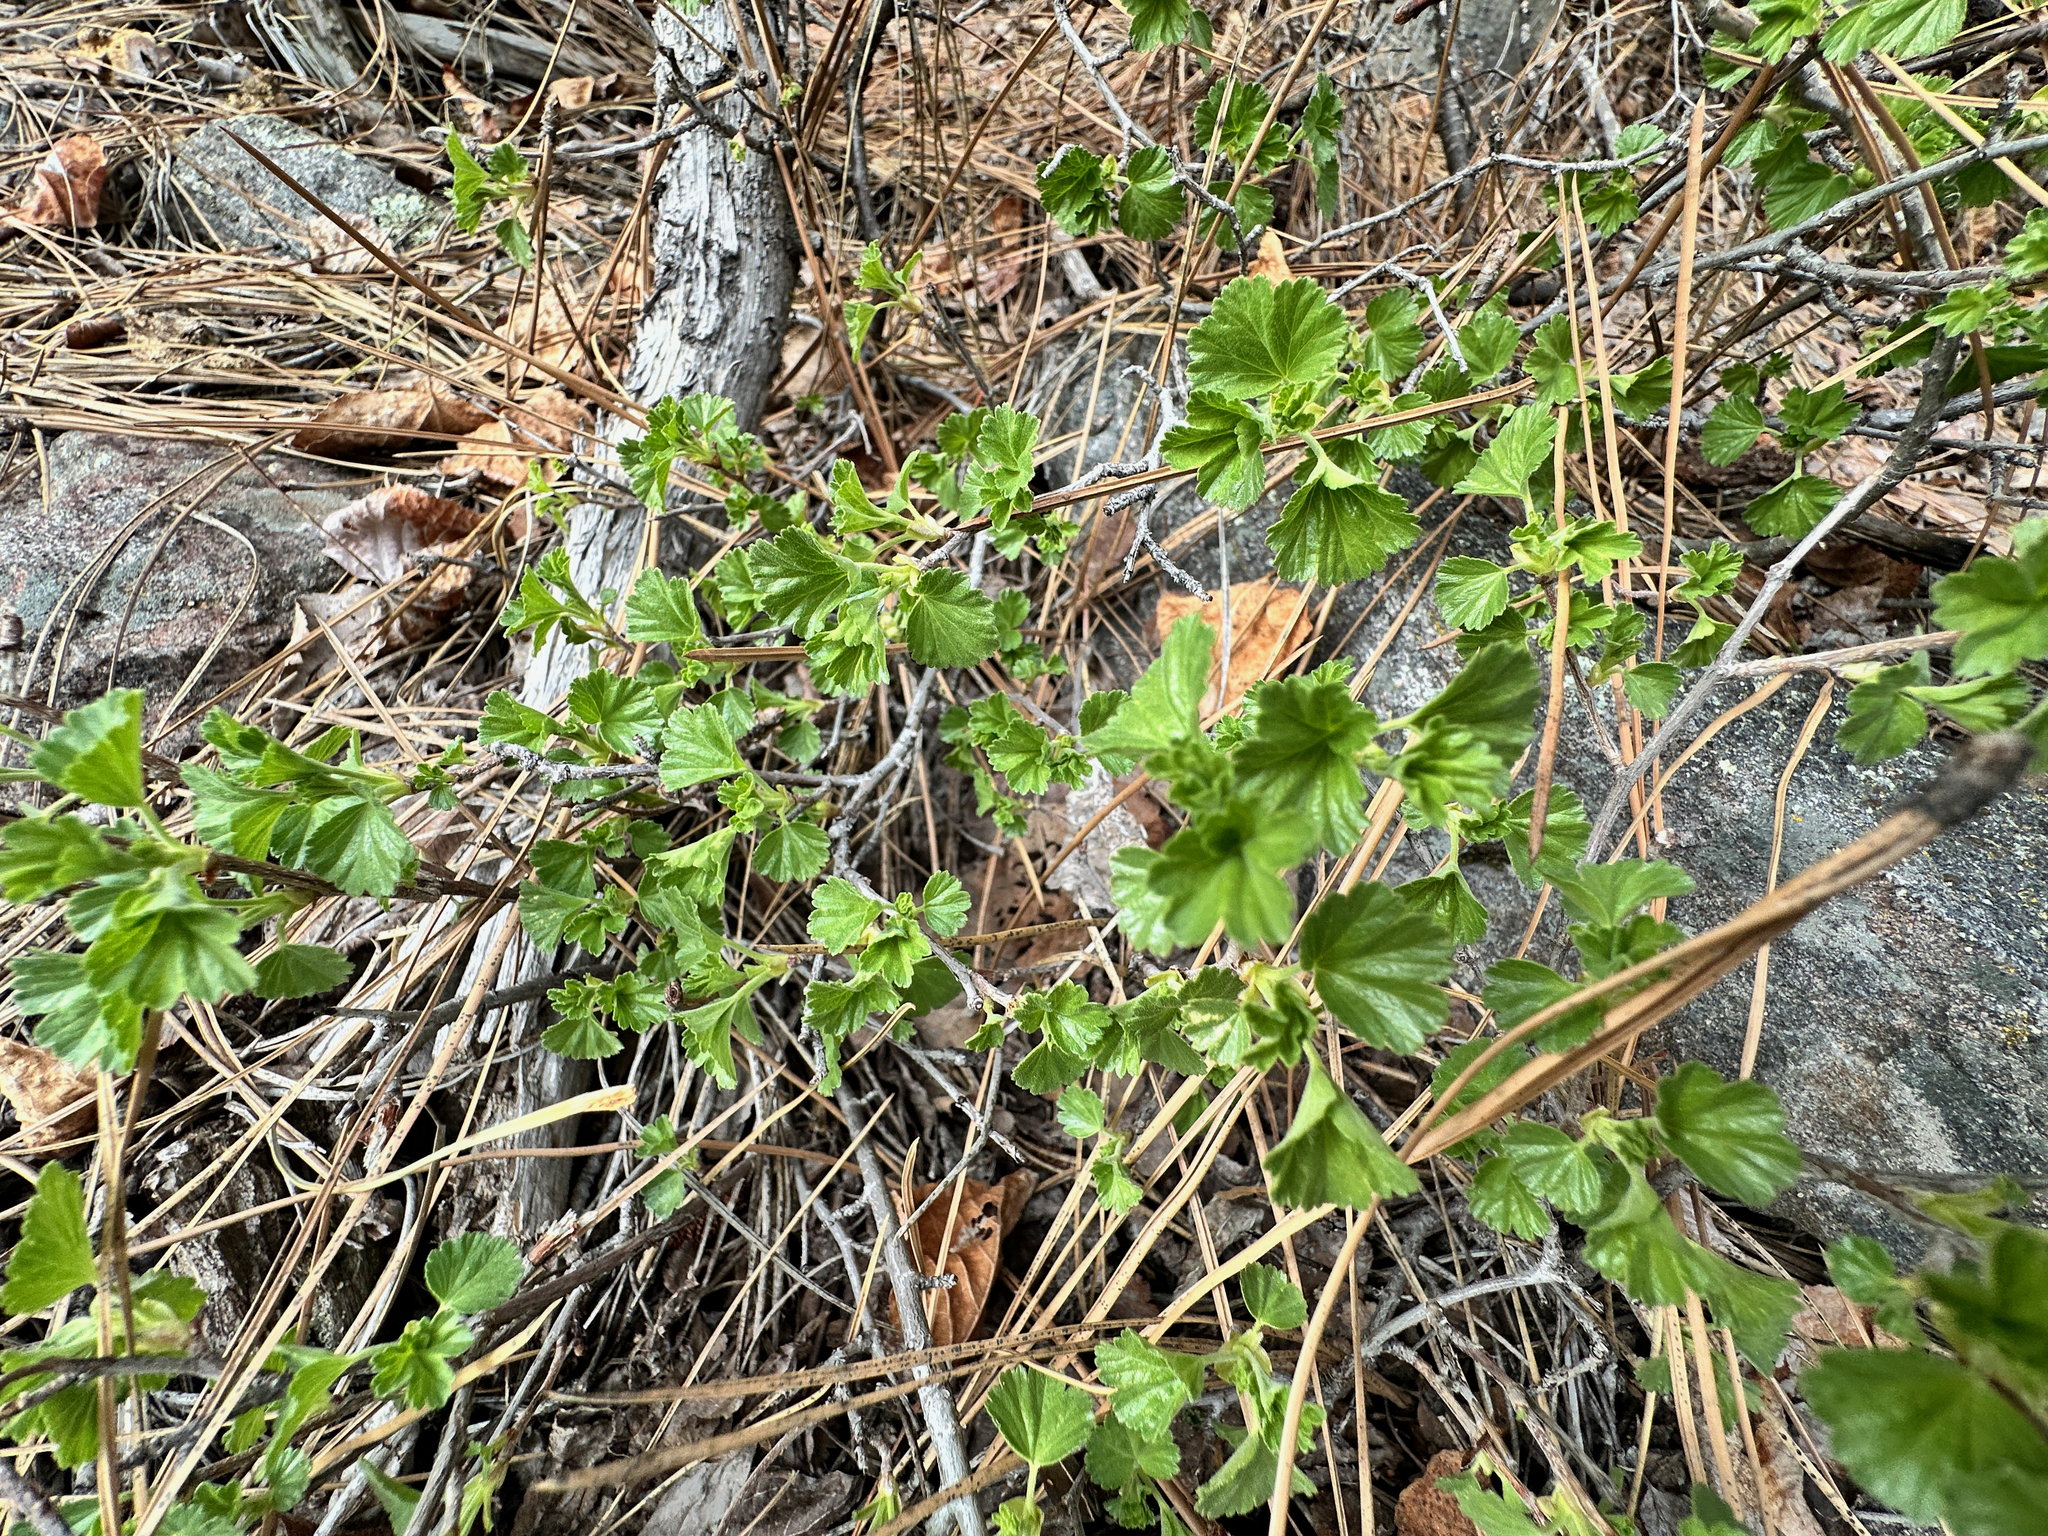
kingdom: Plantae
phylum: Tracheophyta
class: Magnoliopsida
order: Saxifragales
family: Grossulariaceae
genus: Ribes
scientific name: Ribes cereum
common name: Wax currant
